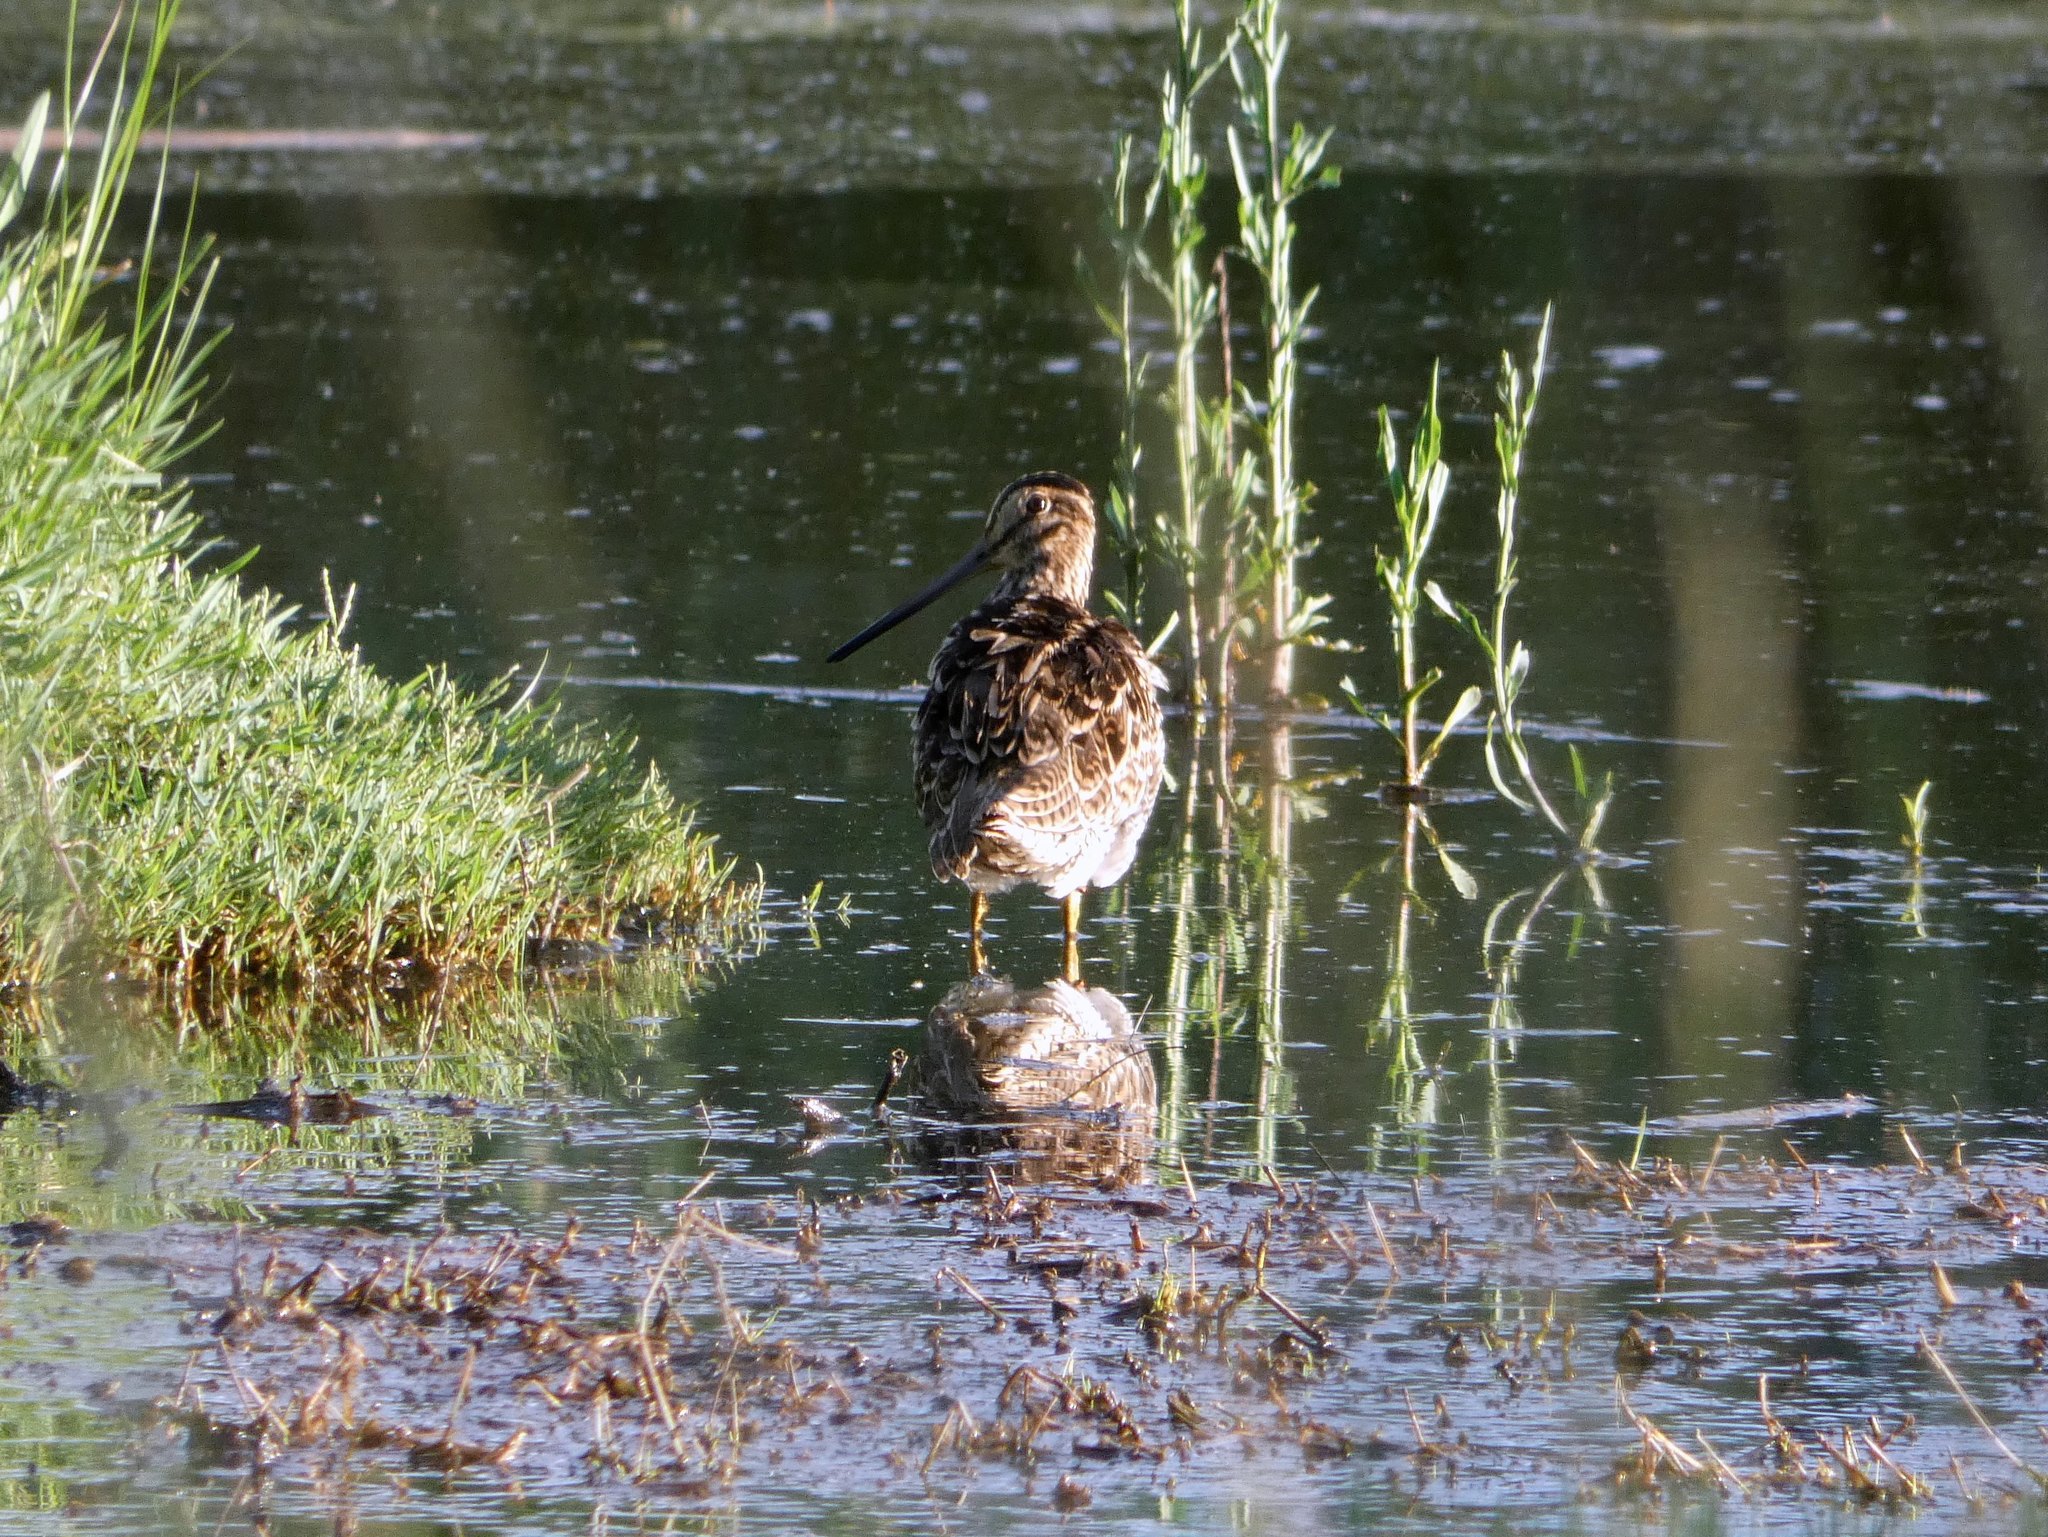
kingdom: Animalia
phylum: Chordata
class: Aves
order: Charadriiformes
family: Scolopacidae
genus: Gallinago
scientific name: Gallinago hardwickii
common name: Latham's snipe
